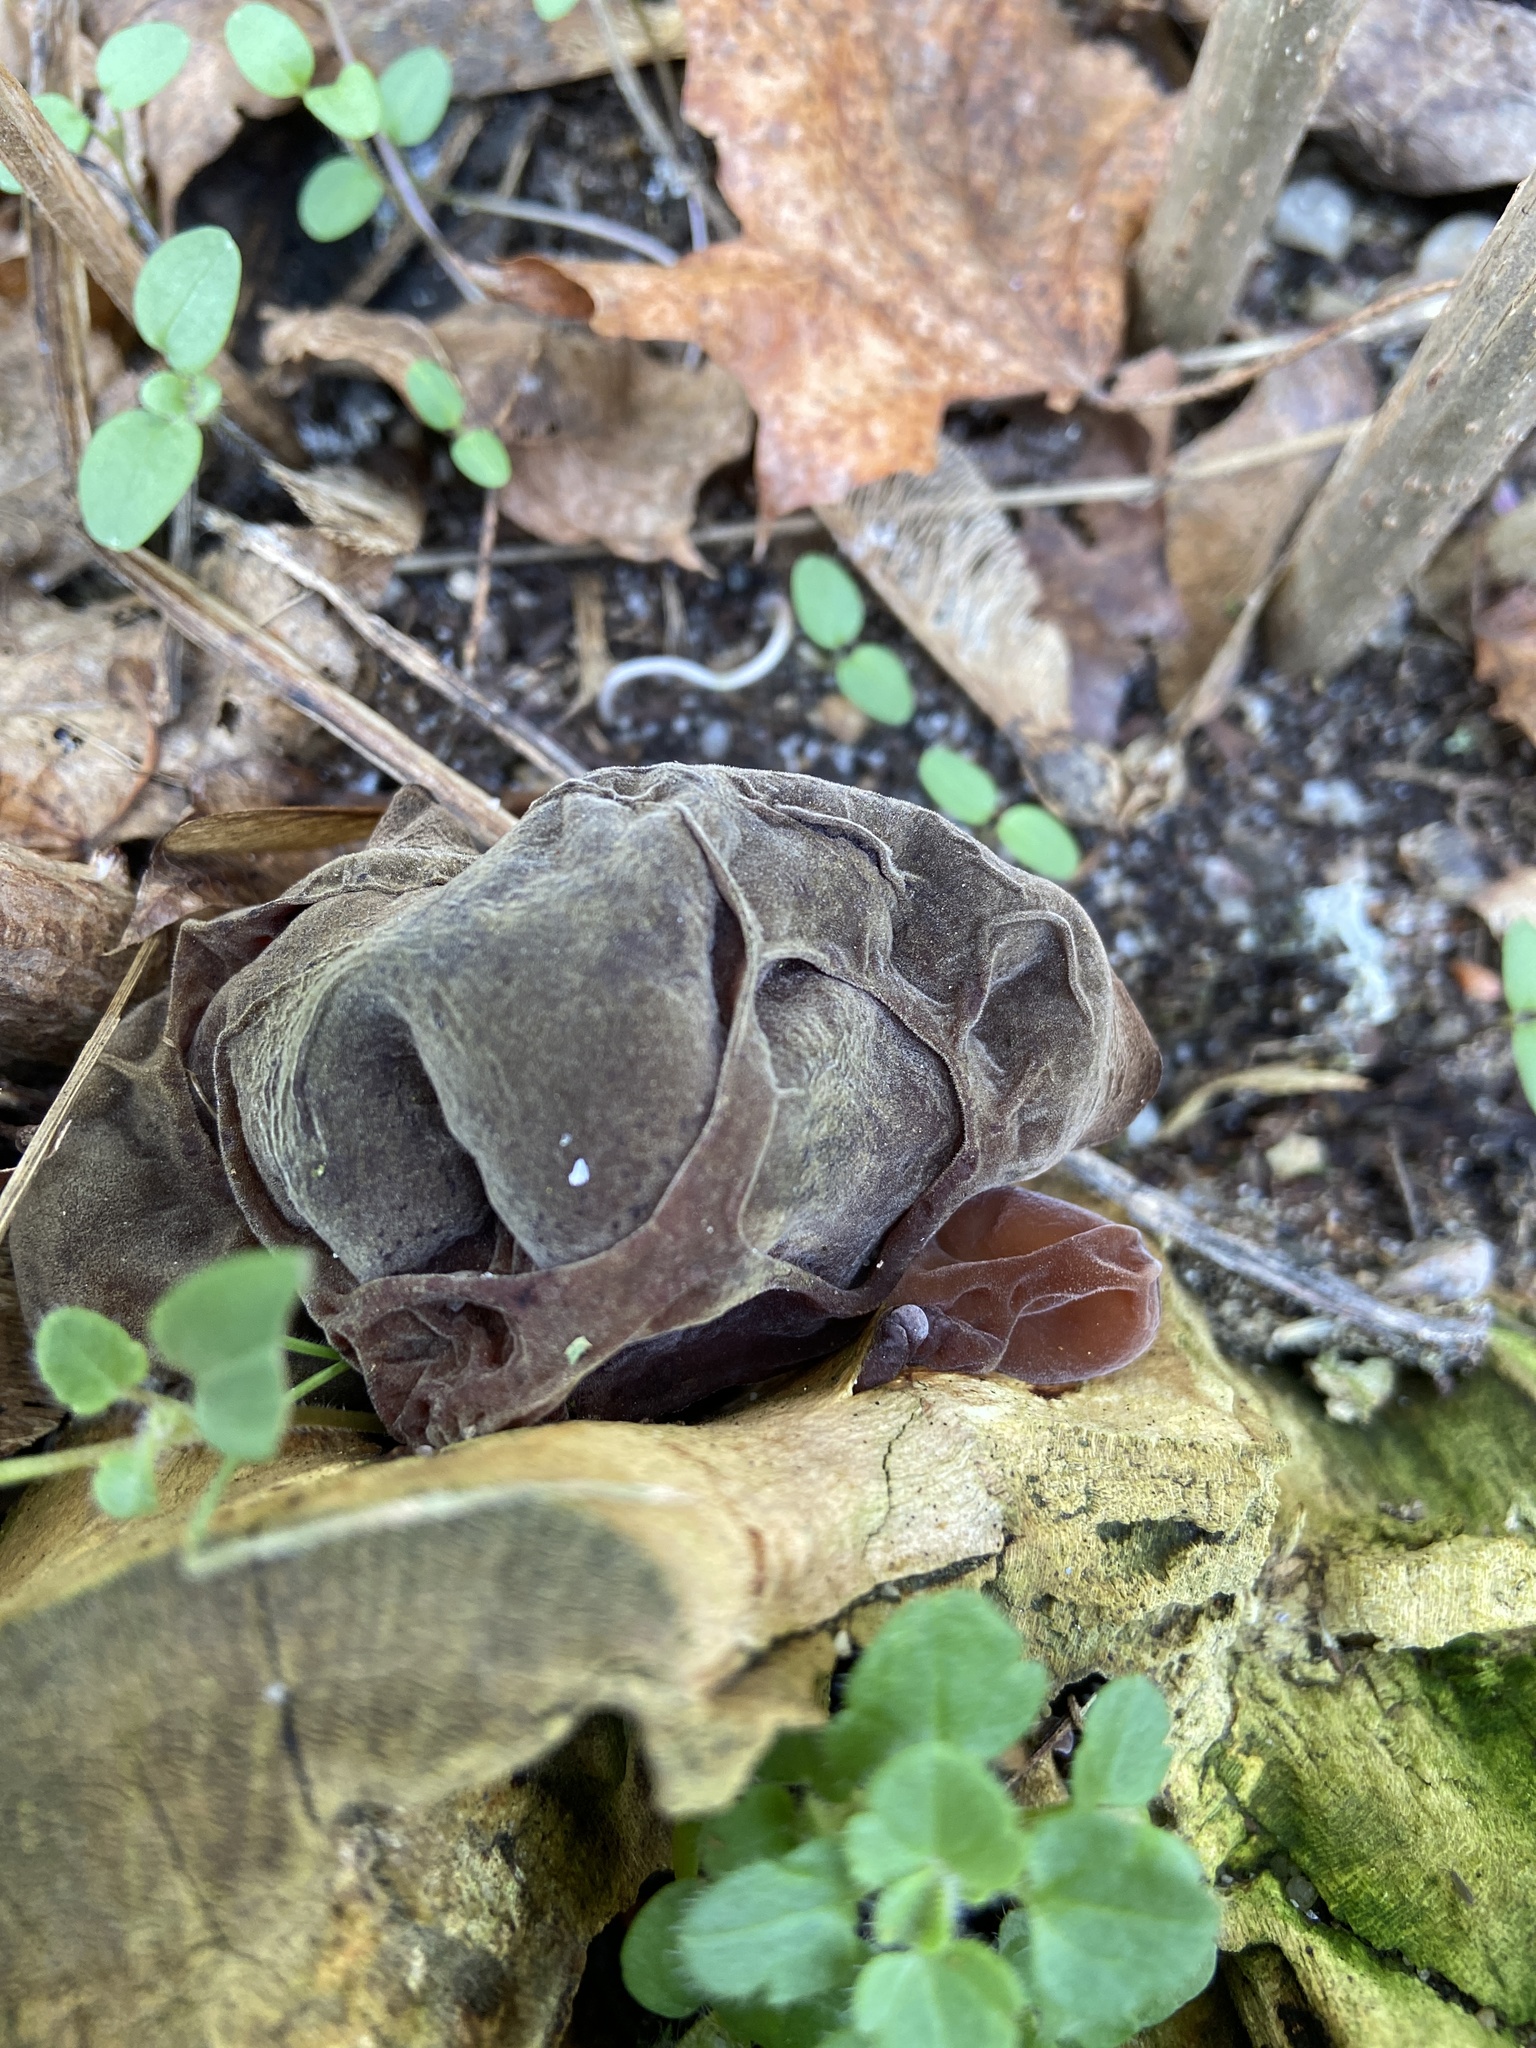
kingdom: Fungi
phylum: Basidiomycota
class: Agaricomycetes
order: Auriculariales
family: Auriculariaceae
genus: Auricularia
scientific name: Auricularia auricula-judae
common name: Jelly ear
